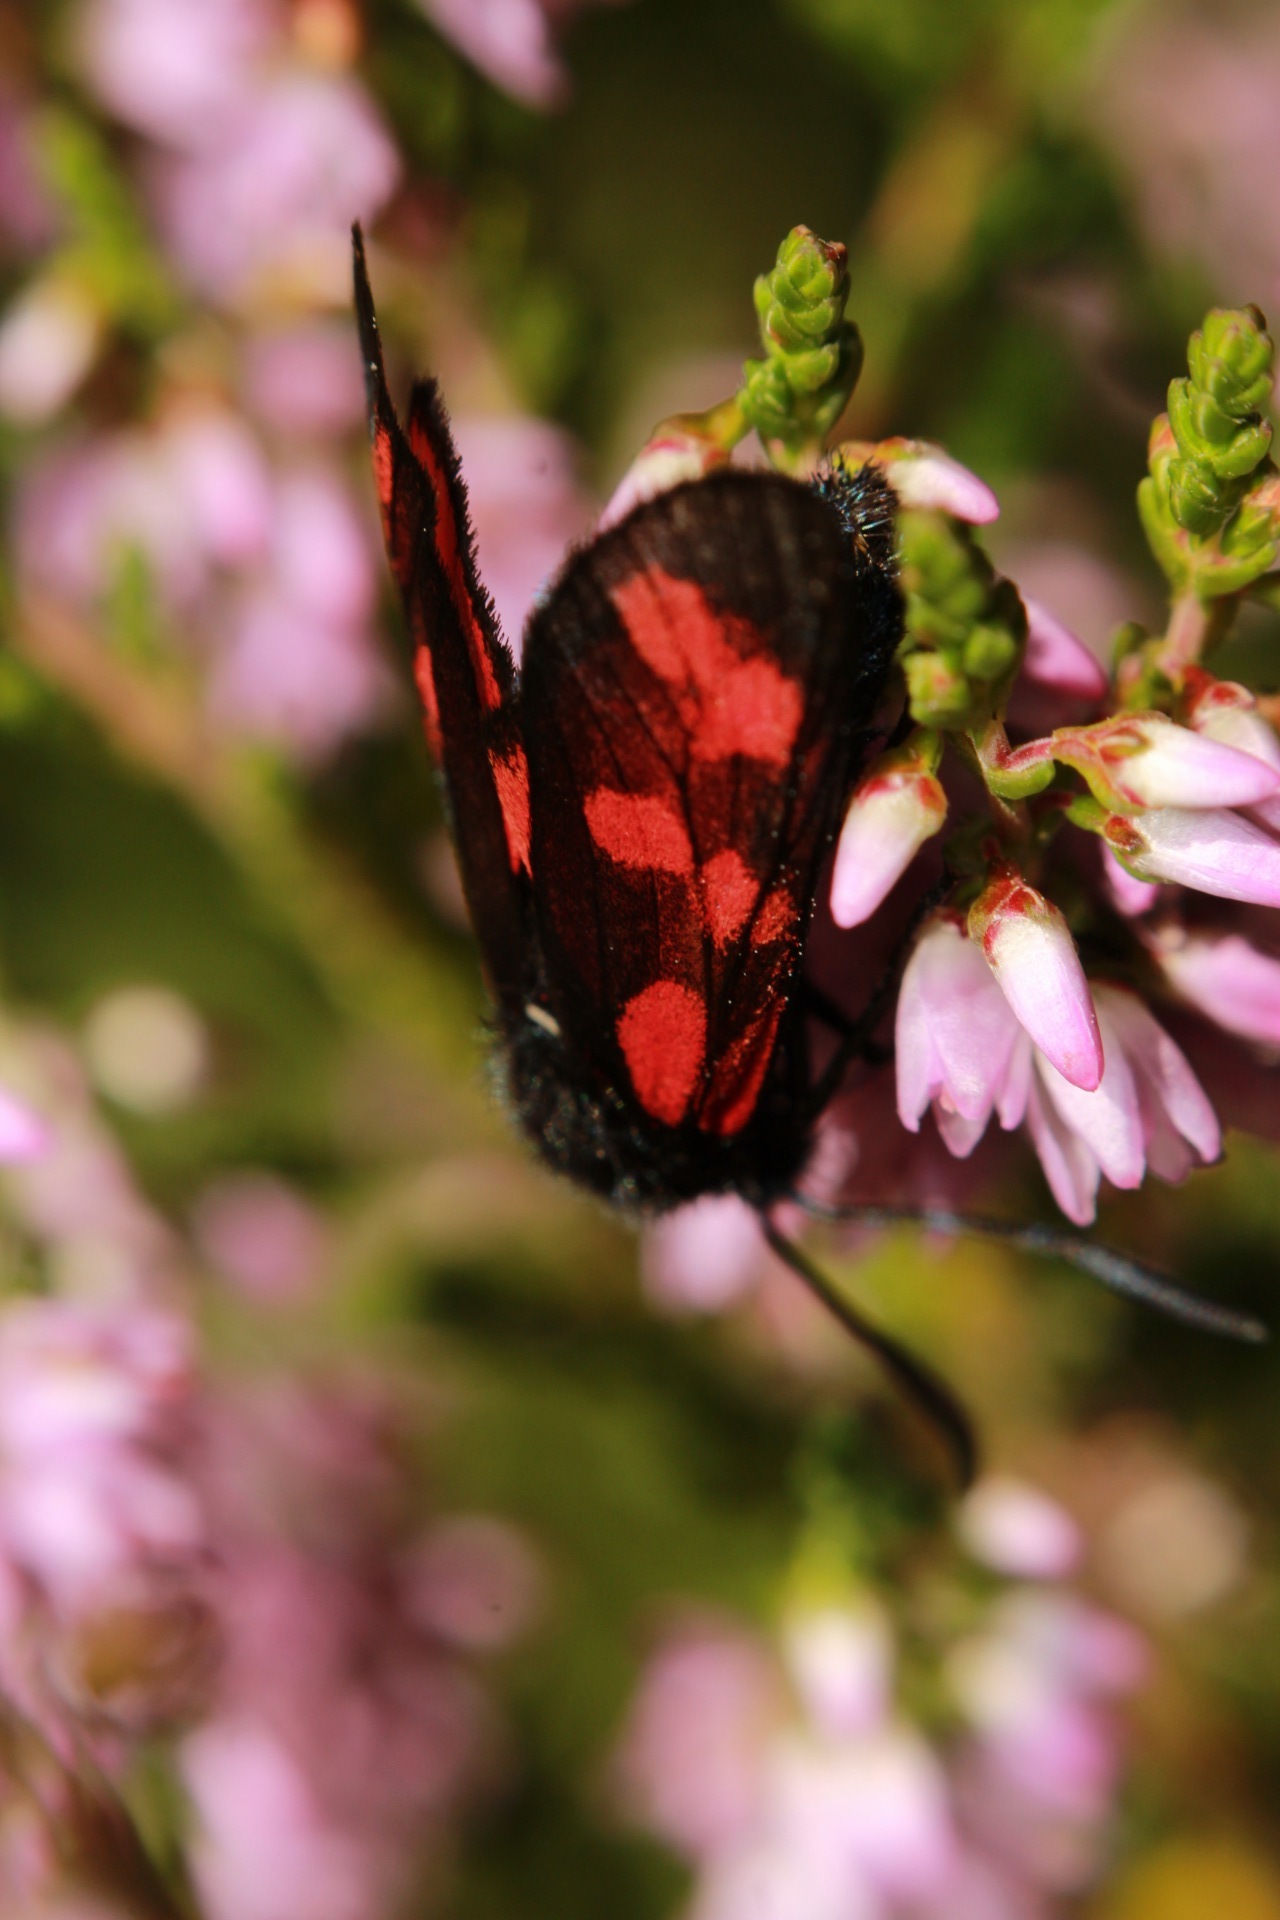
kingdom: Animalia
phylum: Arthropoda
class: Insecta
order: Lepidoptera
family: Zygaenidae
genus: Zygaena
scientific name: Zygaena filipendulae
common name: Six-spot burnet
